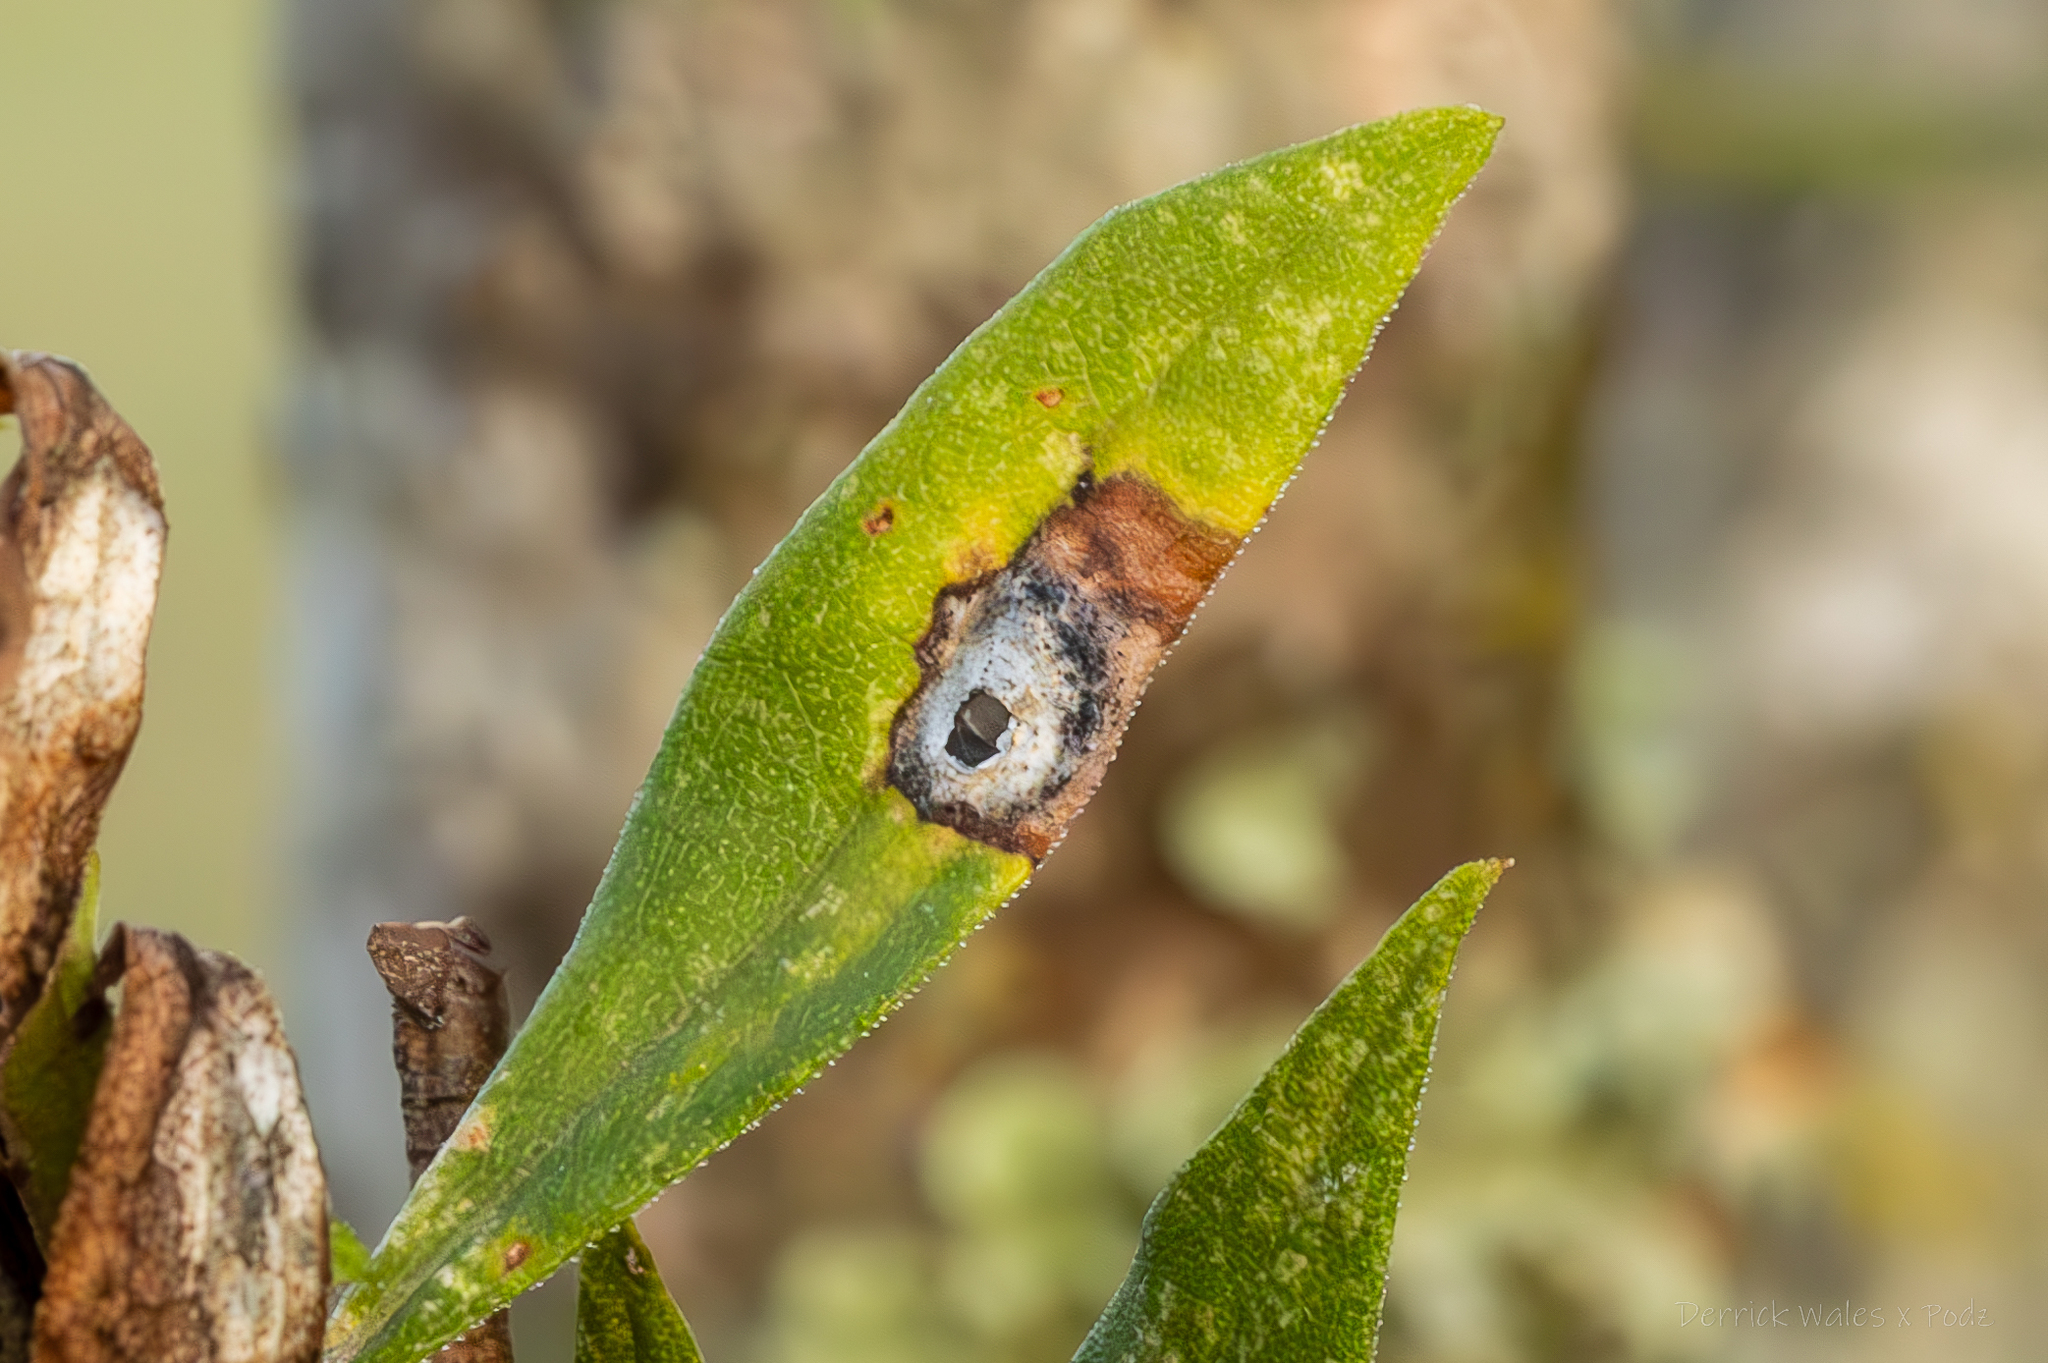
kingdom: Animalia
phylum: Arthropoda
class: Insecta
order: Diptera
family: Cecidomyiidae
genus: Asteromyia
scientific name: Asteromyia carbonifera
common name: Carbonifera goldenrod gall midge
